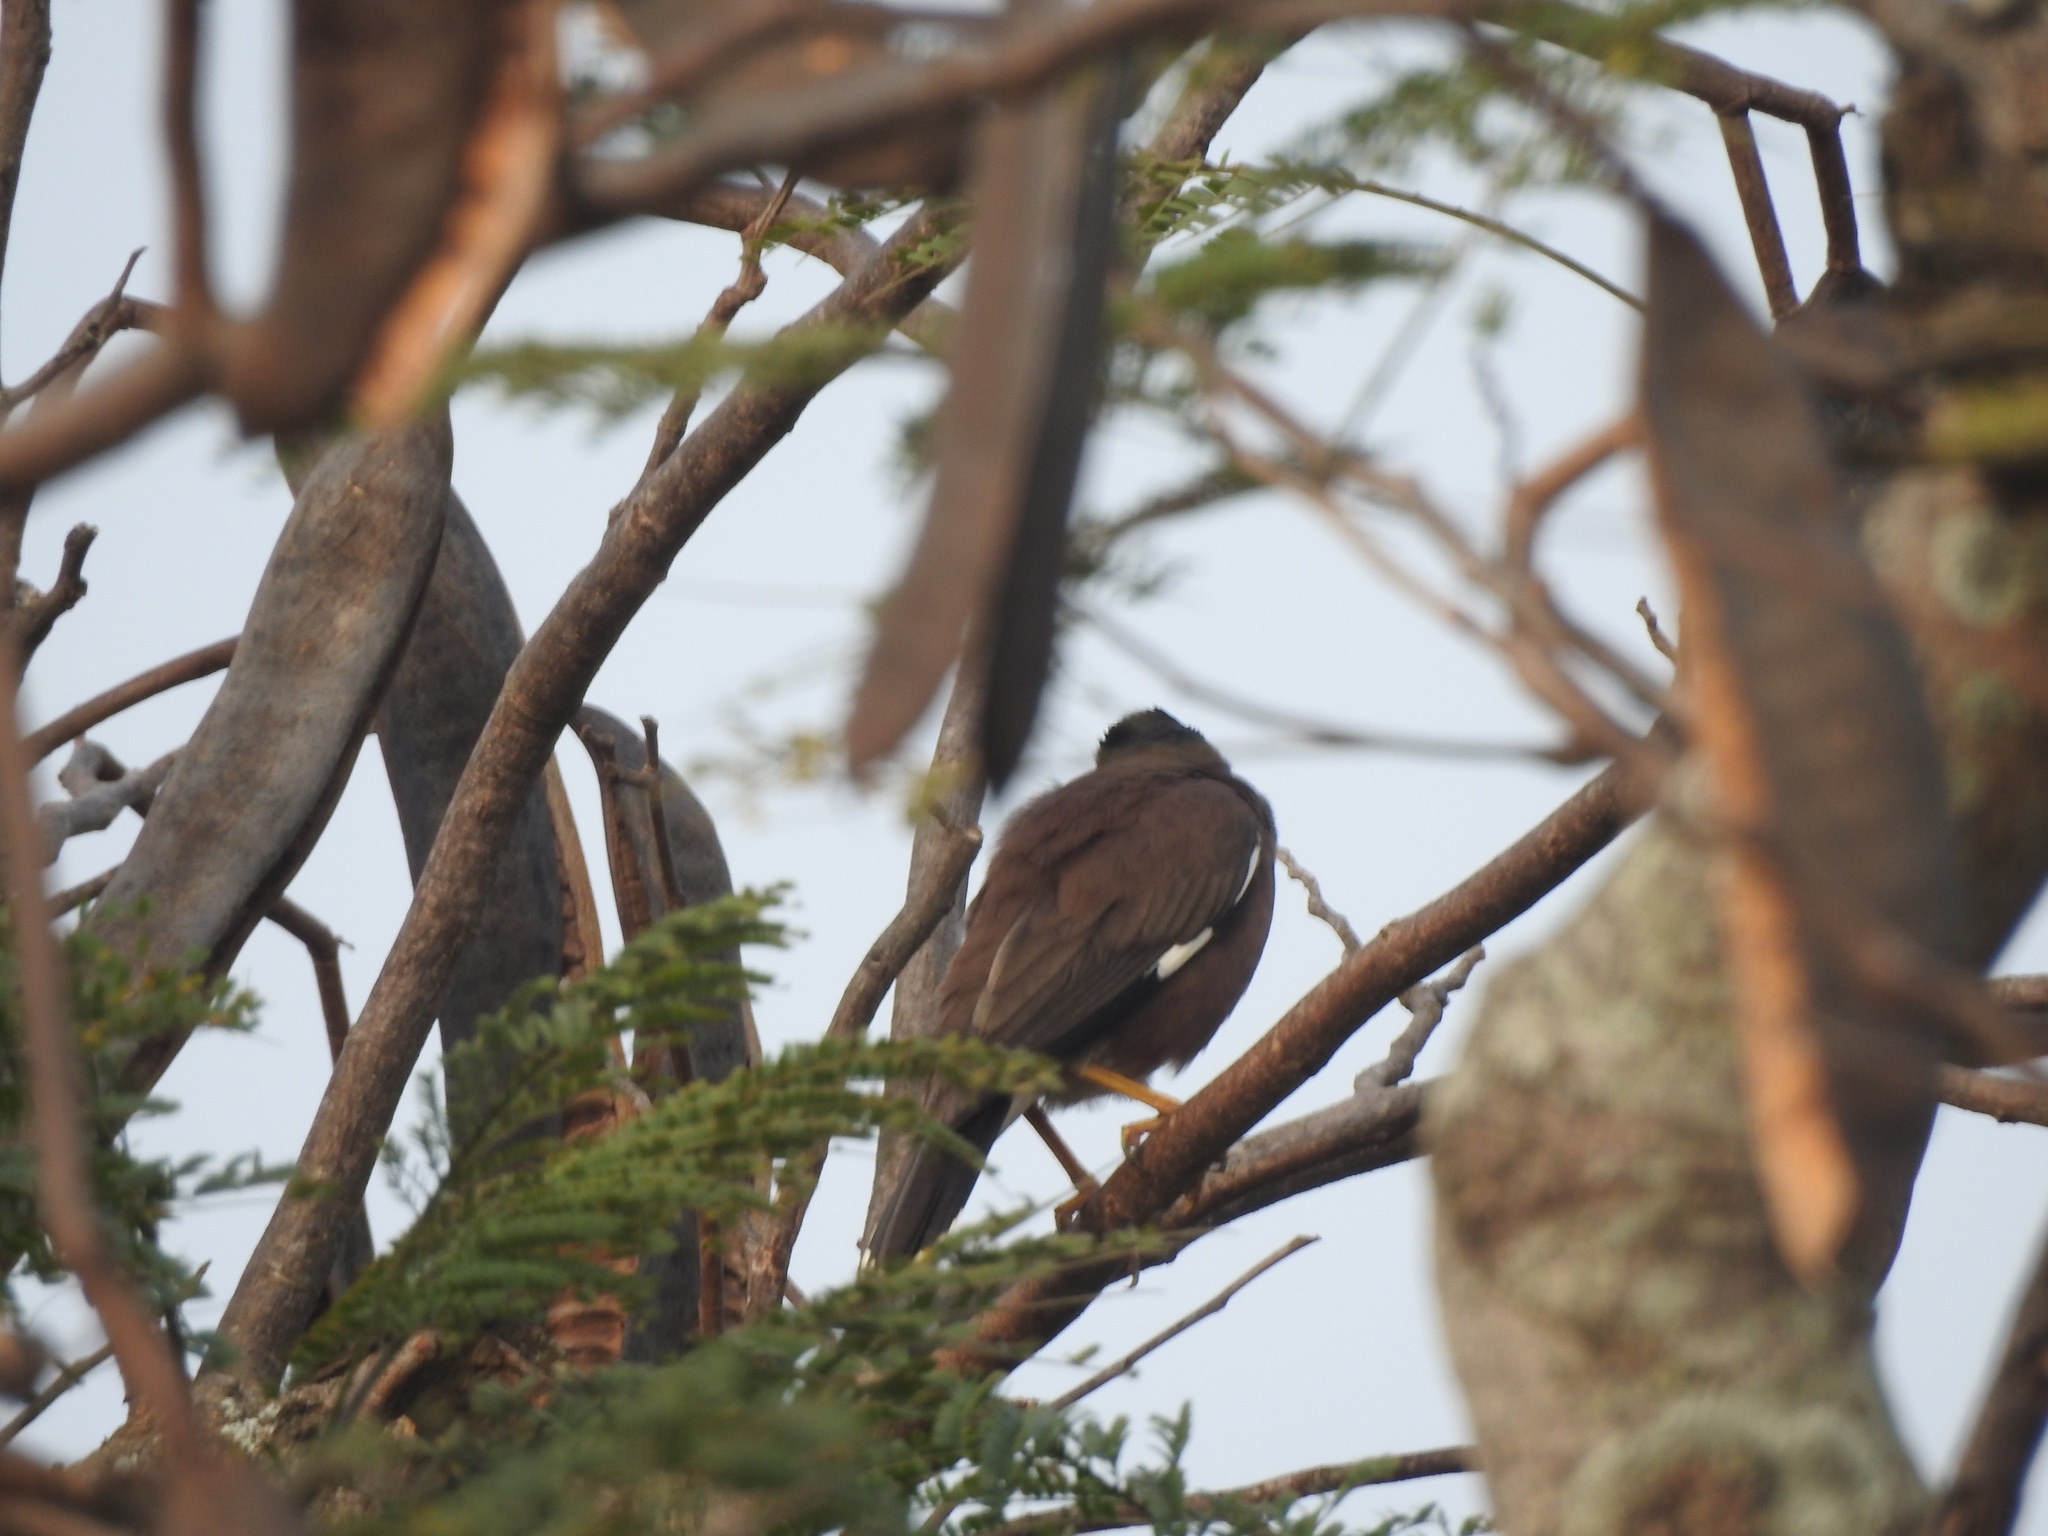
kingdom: Animalia
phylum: Chordata
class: Aves
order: Passeriformes
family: Sturnidae
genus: Acridotheres
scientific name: Acridotheres tristis
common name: Common myna
